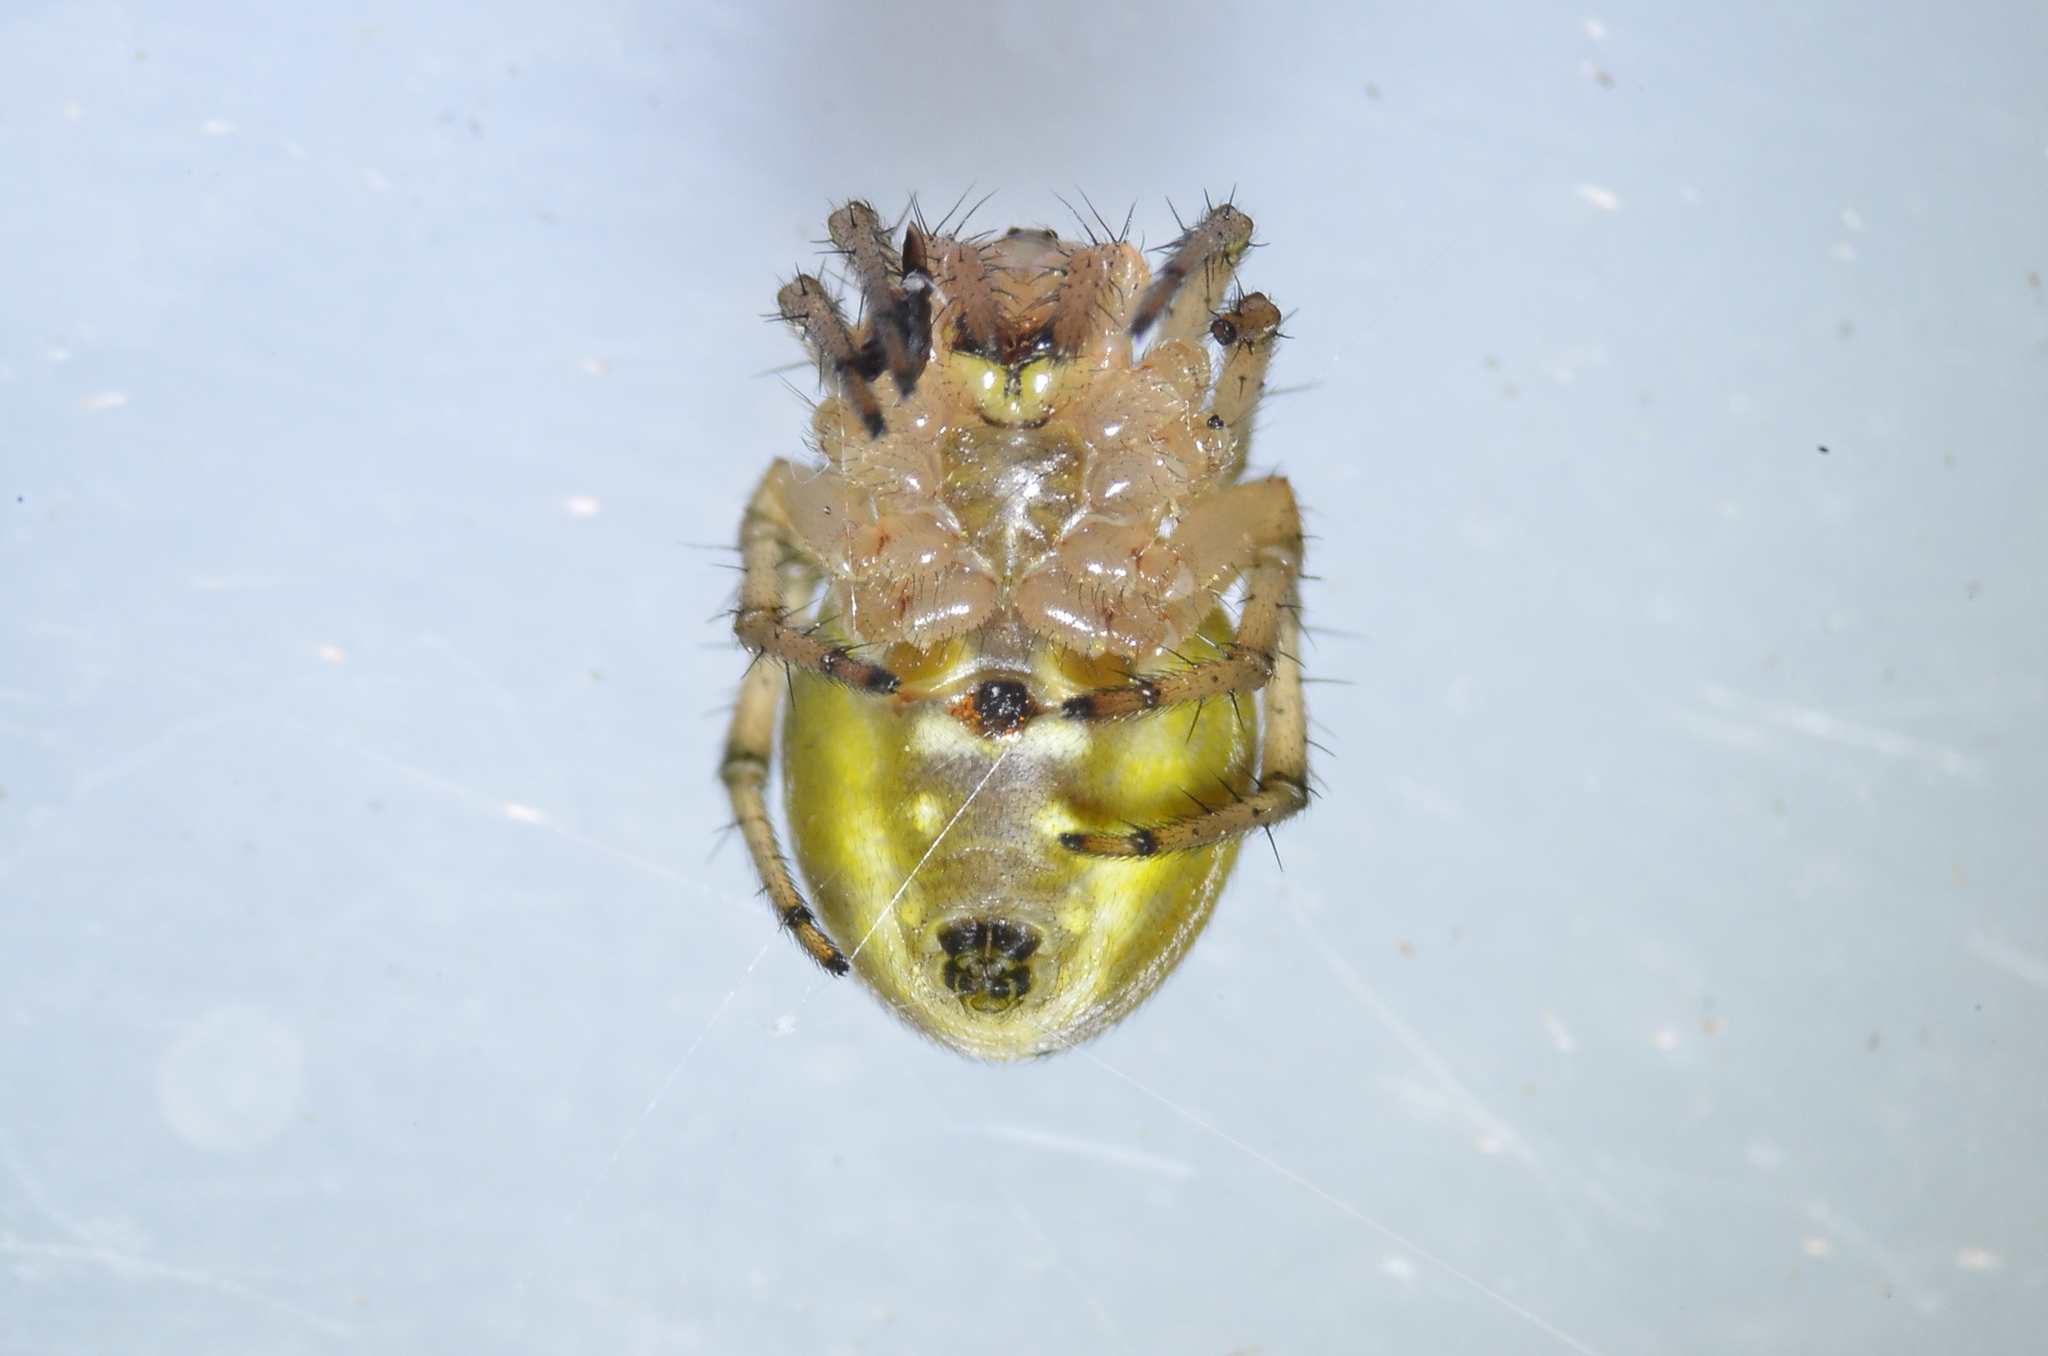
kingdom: Animalia
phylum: Arthropoda
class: Arachnida
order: Araneae
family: Araneidae
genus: Araniella
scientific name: Araniella displicata
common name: Sixspotted orb weaver
